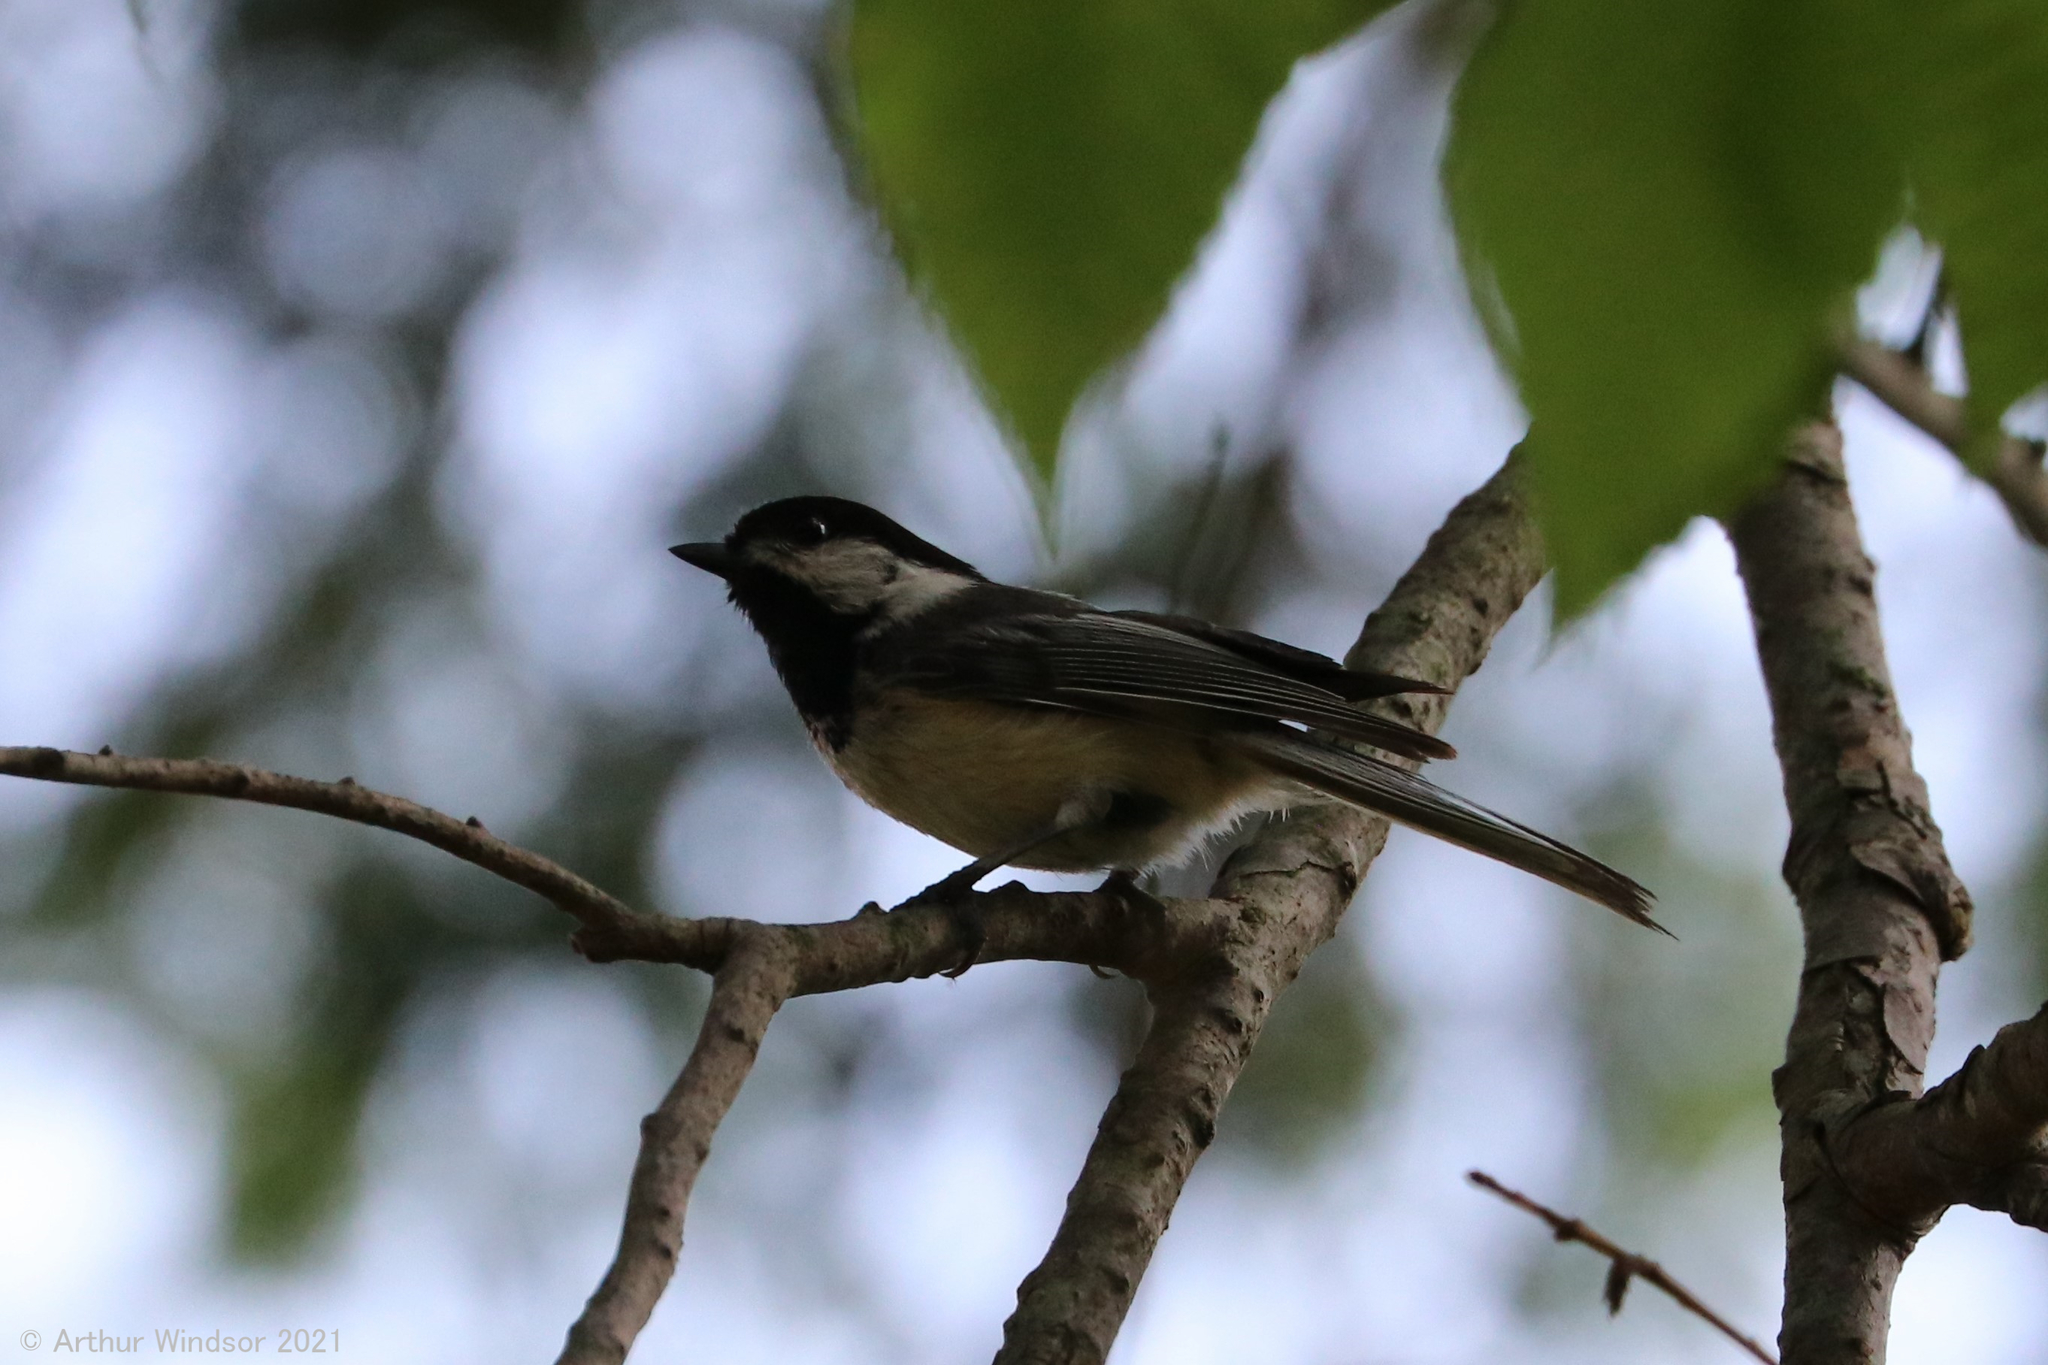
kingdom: Animalia
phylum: Chordata
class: Aves
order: Passeriformes
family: Paridae
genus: Poecile
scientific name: Poecile atricapillus
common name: Black-capped chickadee
